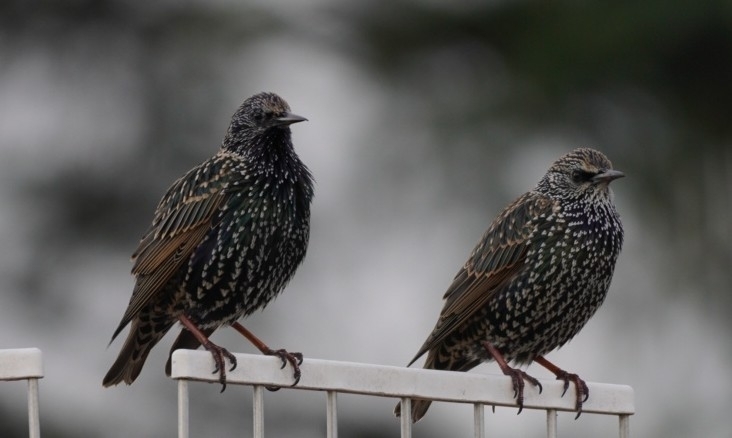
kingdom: Animalia
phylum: Chordata
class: Aves
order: Passeriformes
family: Sturnidae
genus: Sturnus
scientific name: Sturnus vulgaris
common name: Common starling
